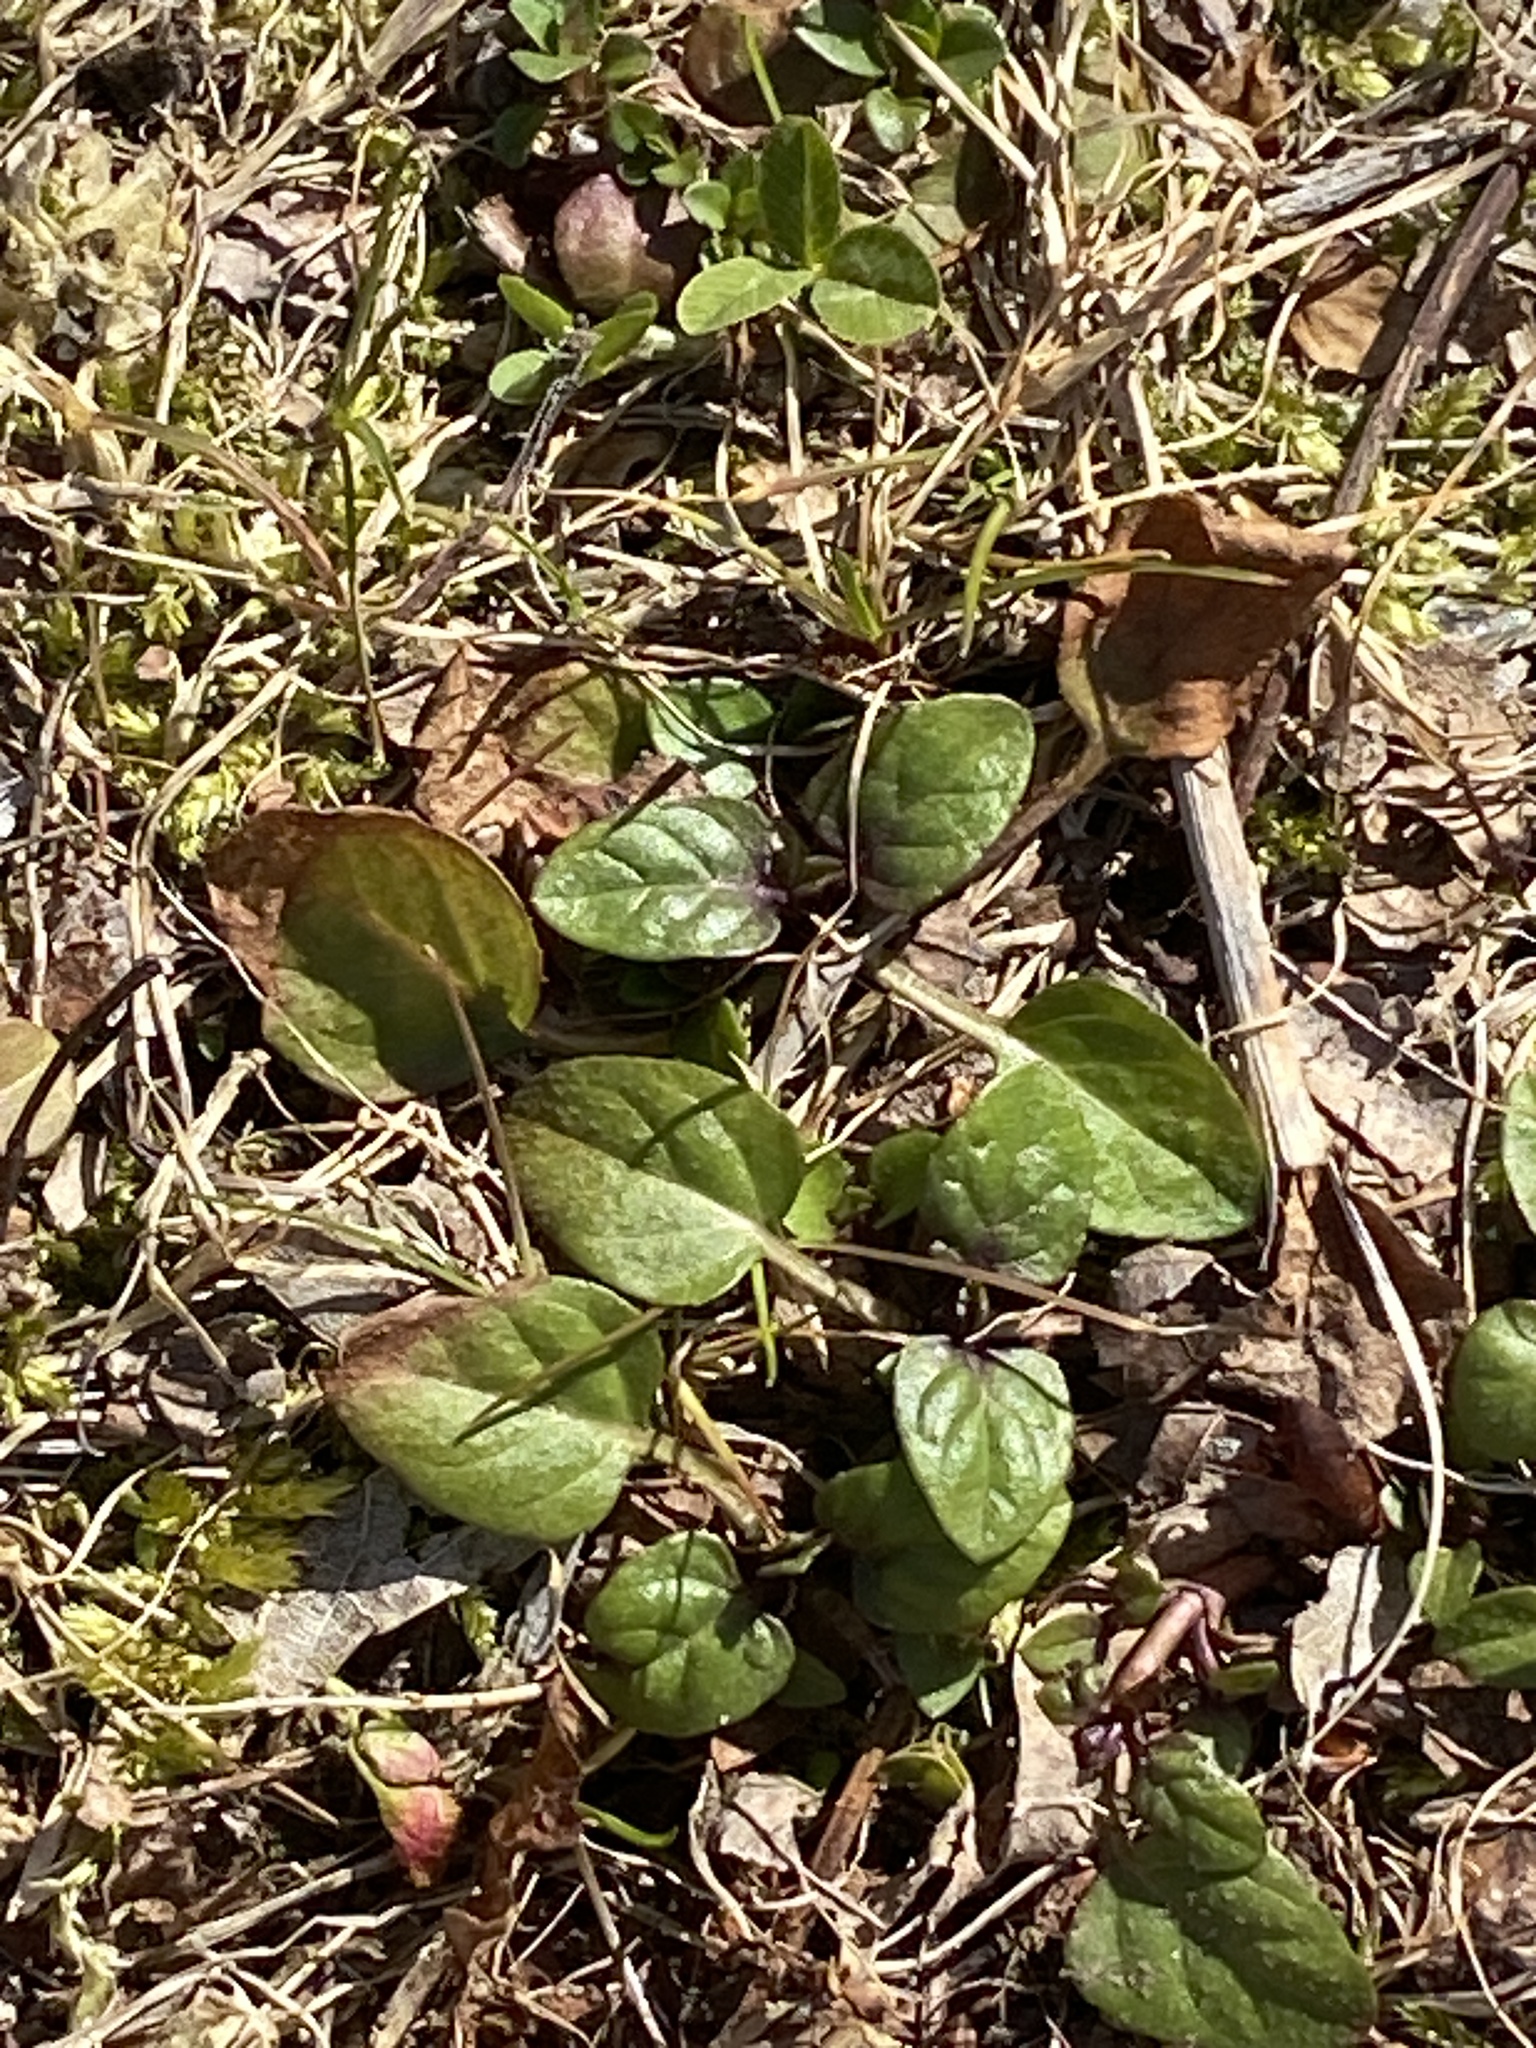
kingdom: Plantae
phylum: Tracheophyta
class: Magnoliopsida
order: Lamiales
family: Lamiaceae
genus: Prunella
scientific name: Prunella vulgaris
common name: Heal-all
